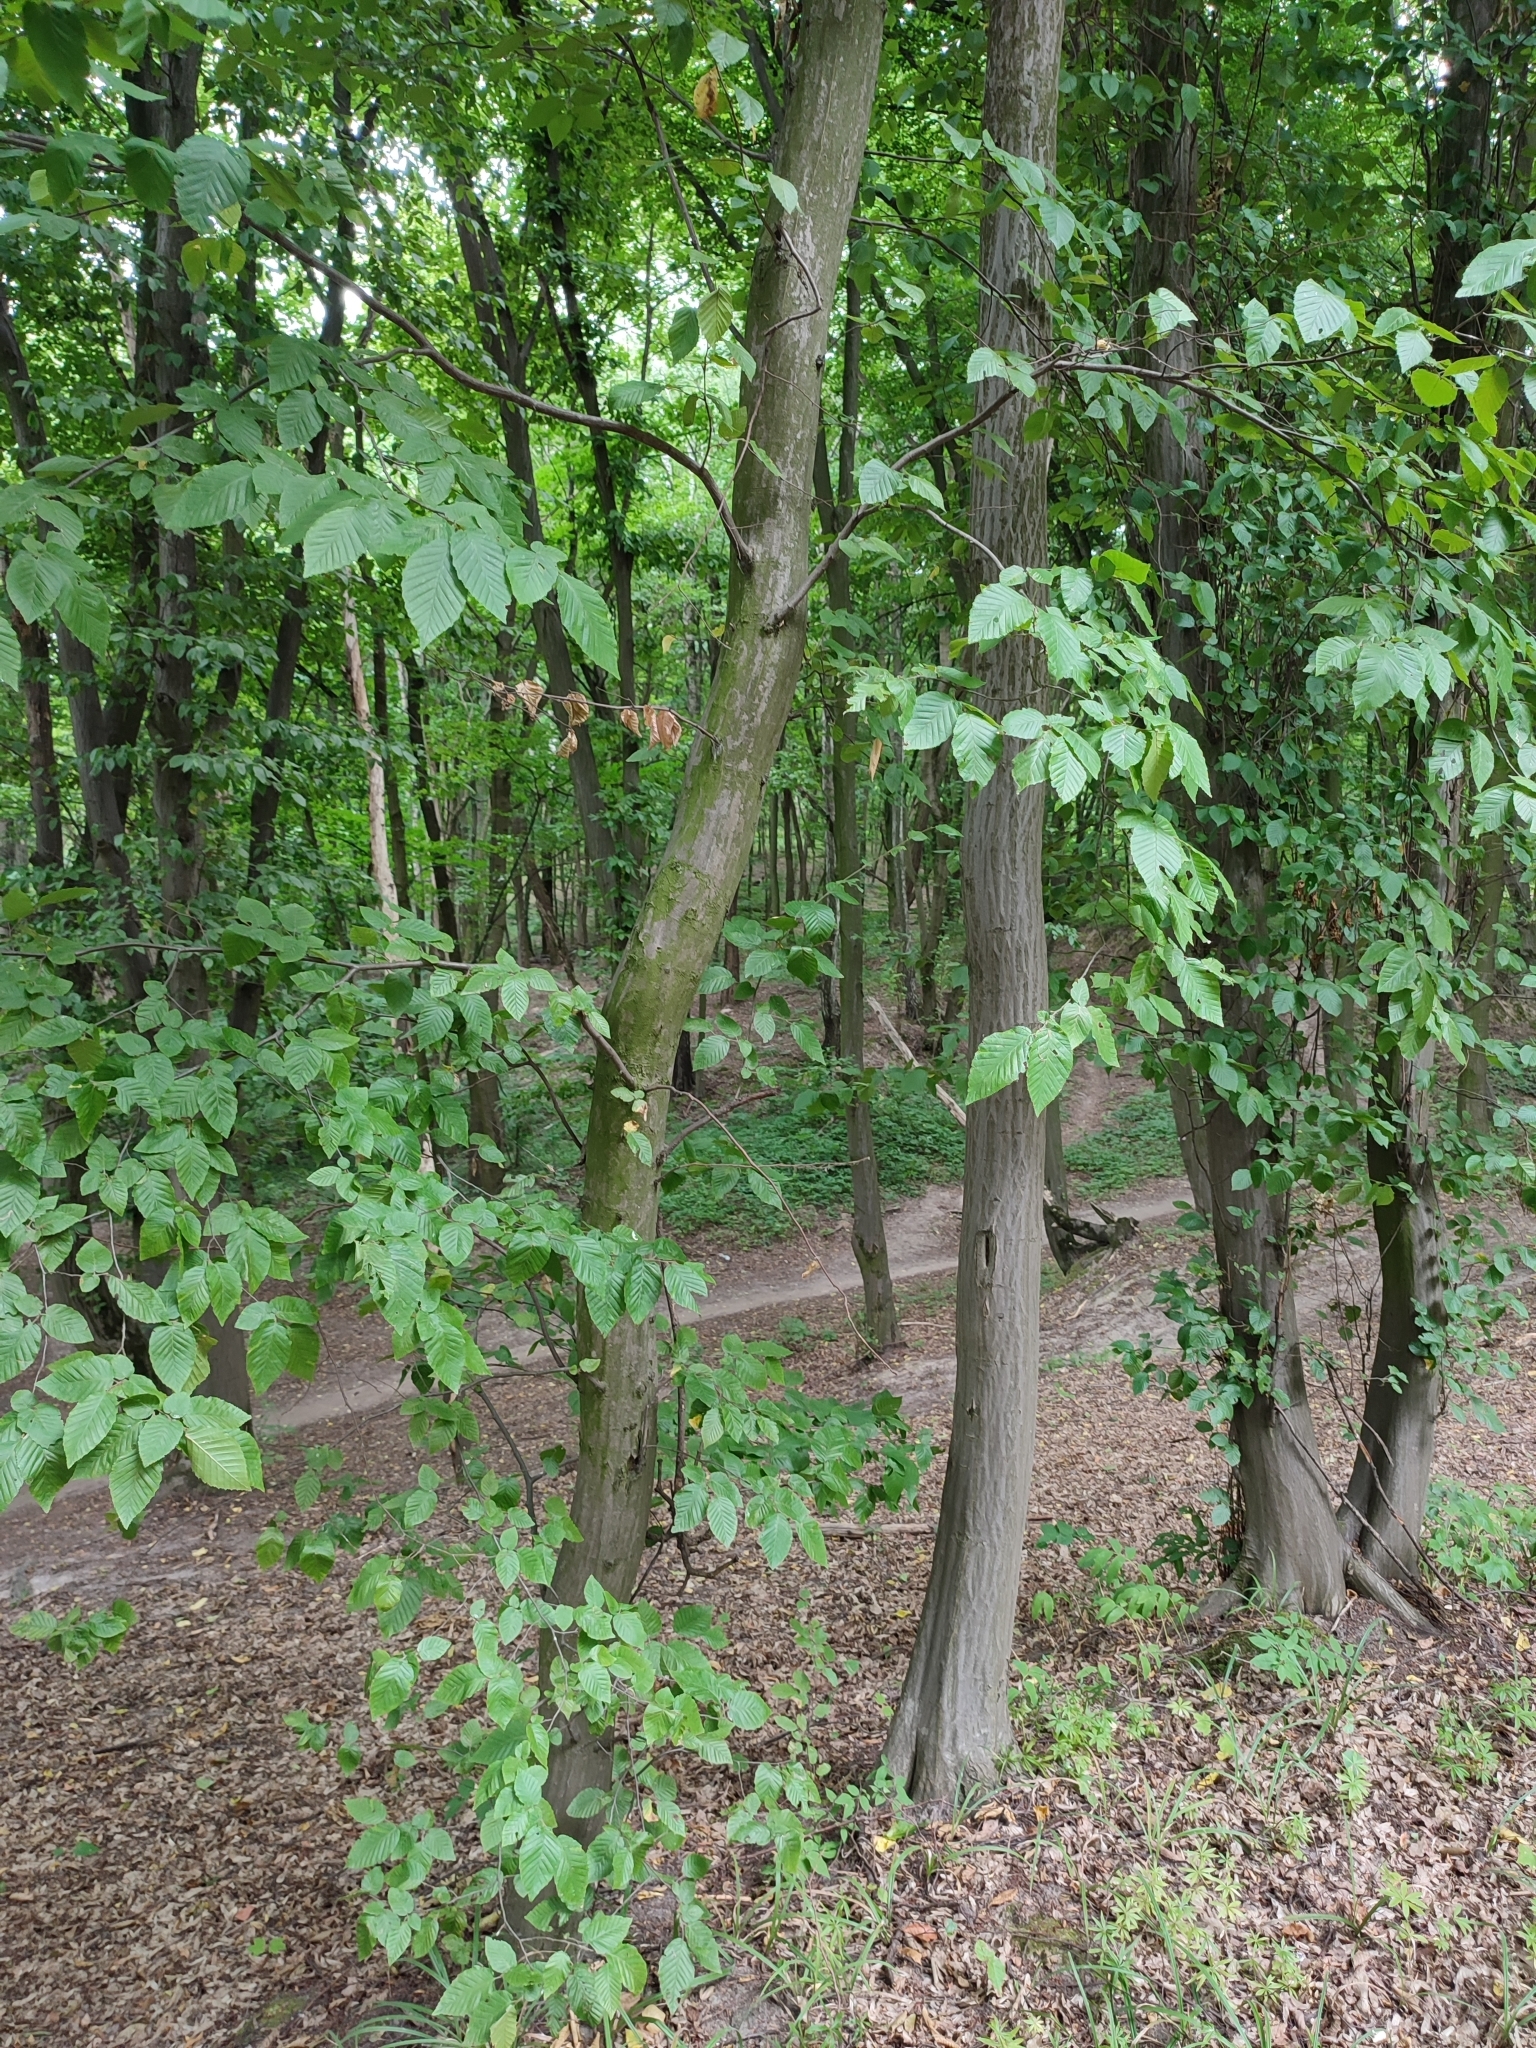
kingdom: Plantae
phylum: Tracheophyta
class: Magnoliopsida
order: Fagales
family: Betulaceae
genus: Carpinus
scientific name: Carpinus betulus
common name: Hornbeam
